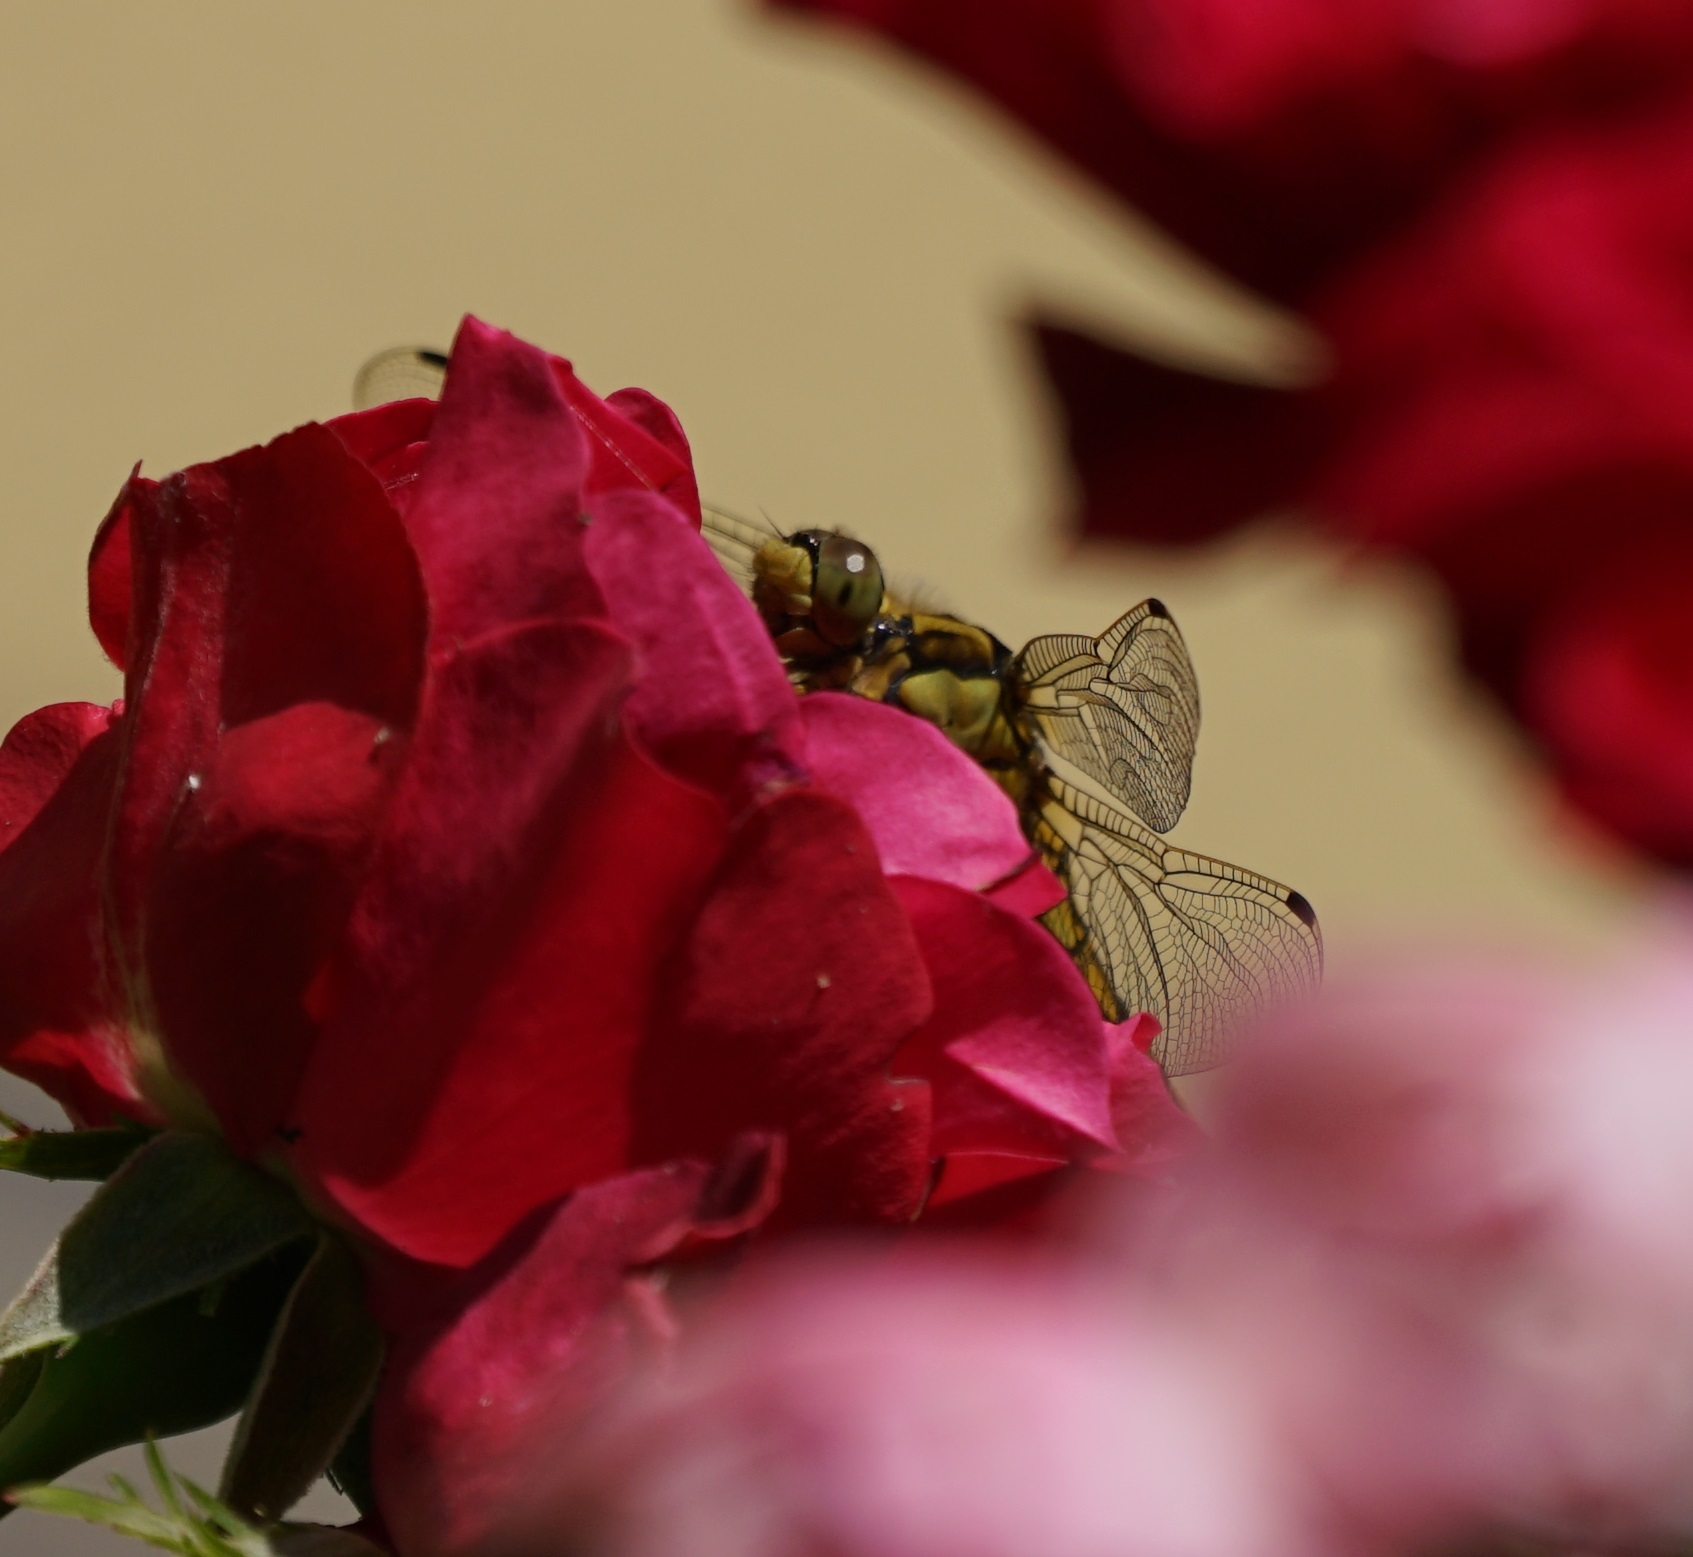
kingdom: Animalia
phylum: Arthropoda
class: Insecta
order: Odonata
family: Libellulidae
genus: Orthetrum
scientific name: Orthetrum cancellatum
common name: Black-tailed skimmer
